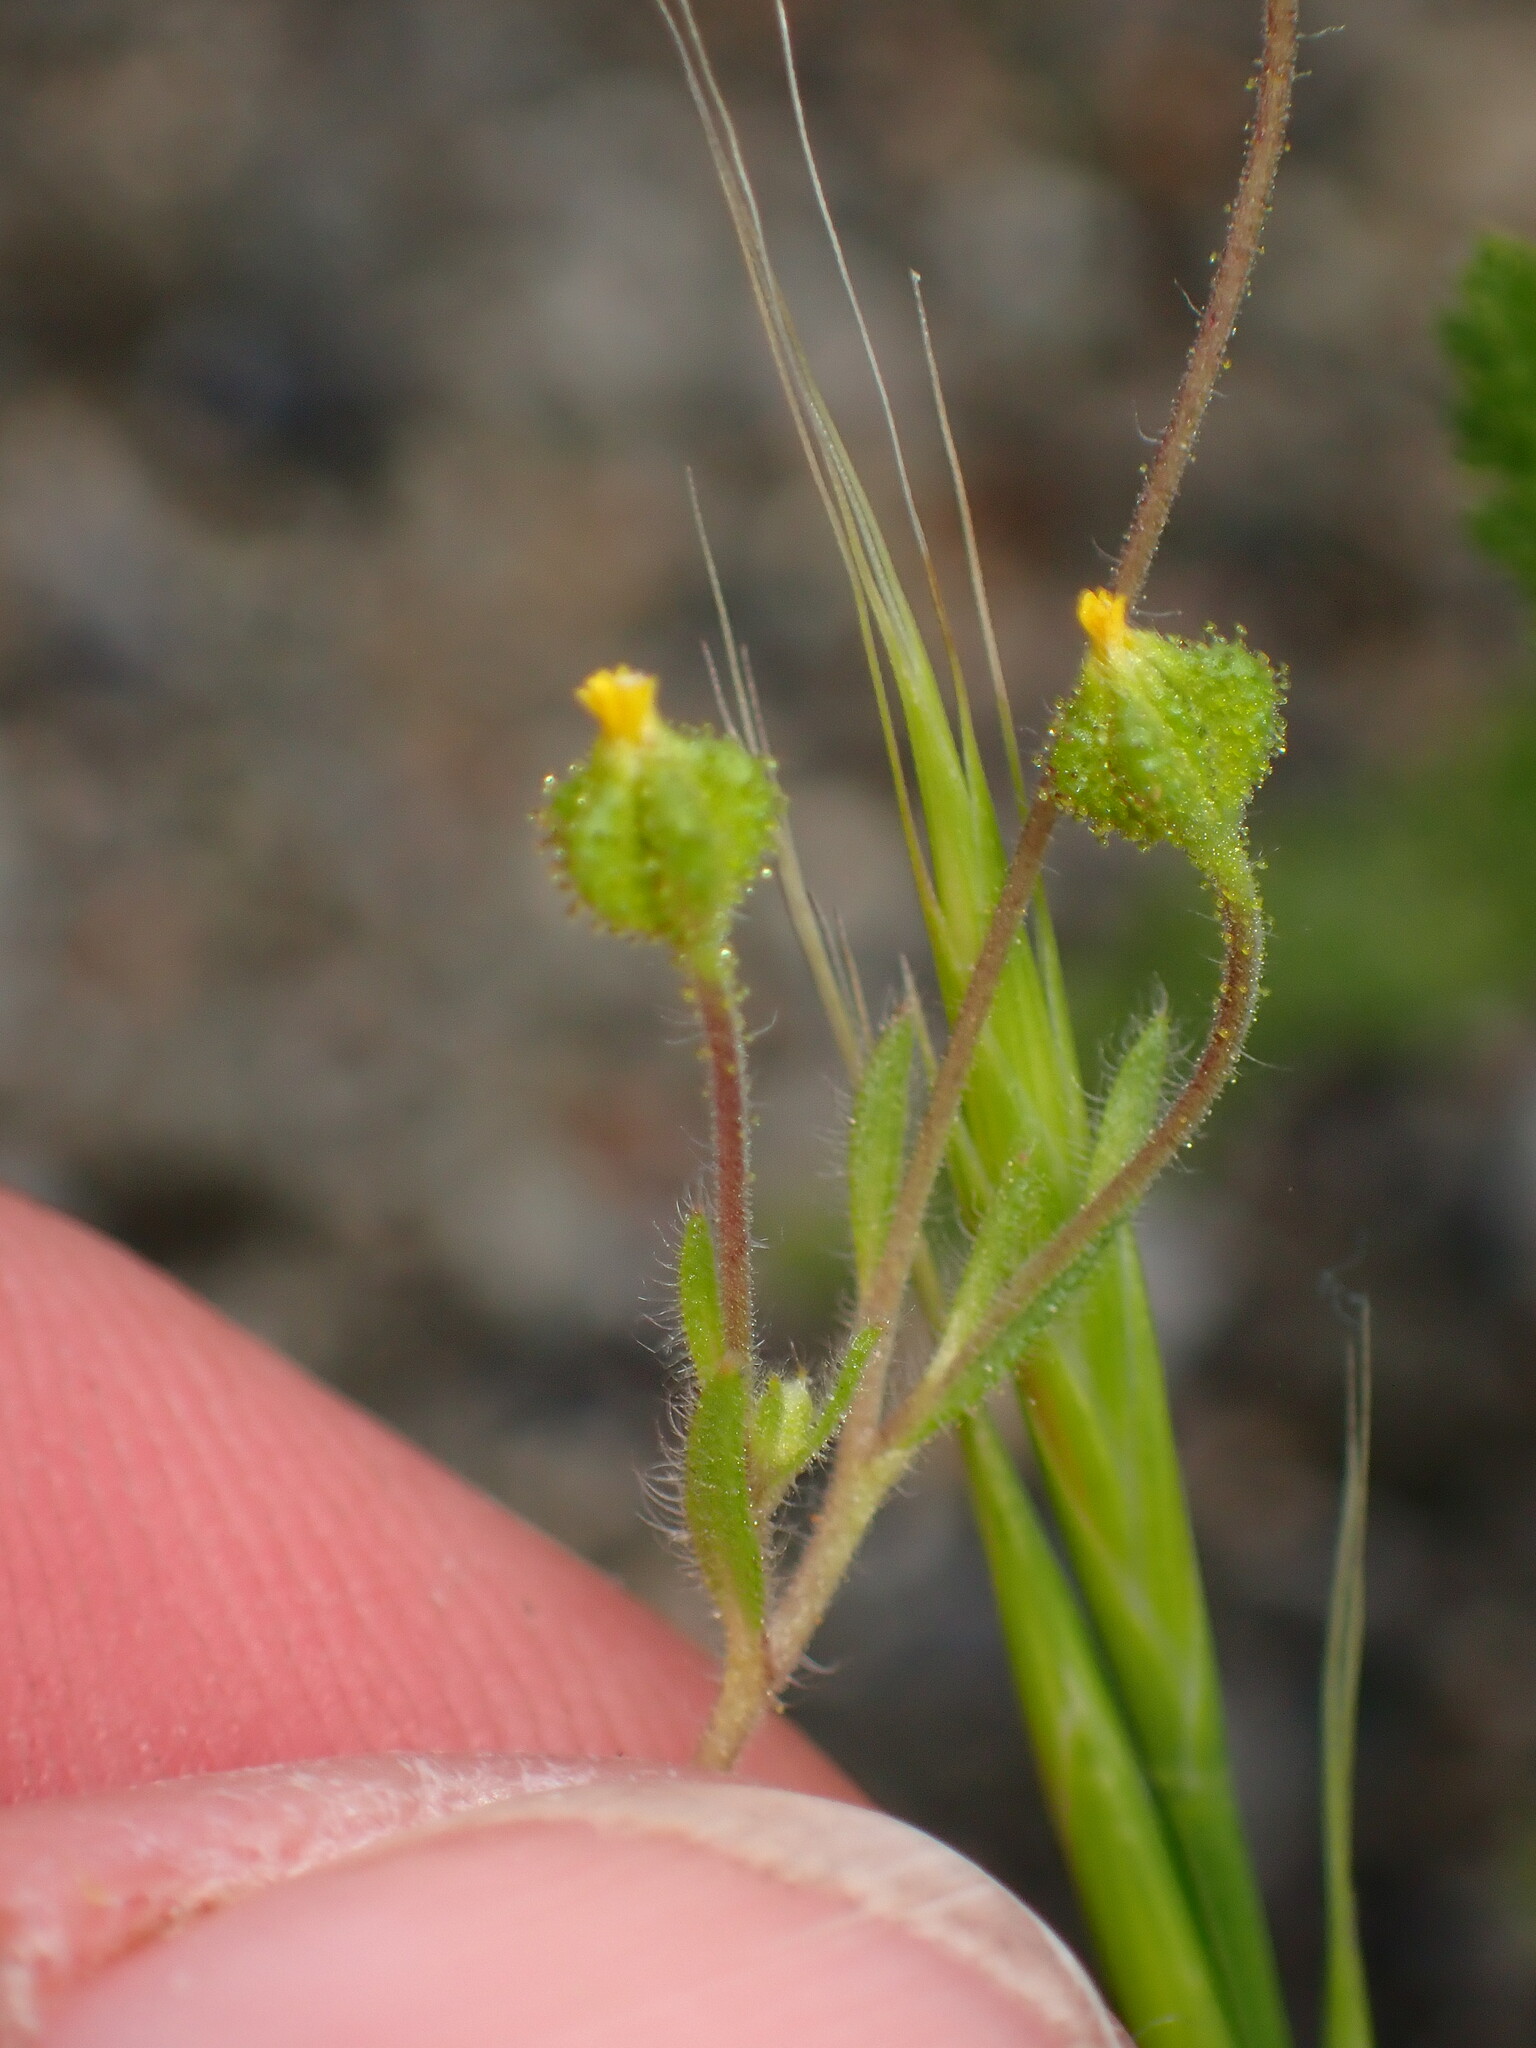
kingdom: Plantae
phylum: Tracheophyta
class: Magnoliopsida
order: Asterales
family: Asteraceae
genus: Madia
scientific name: Madia exigua
